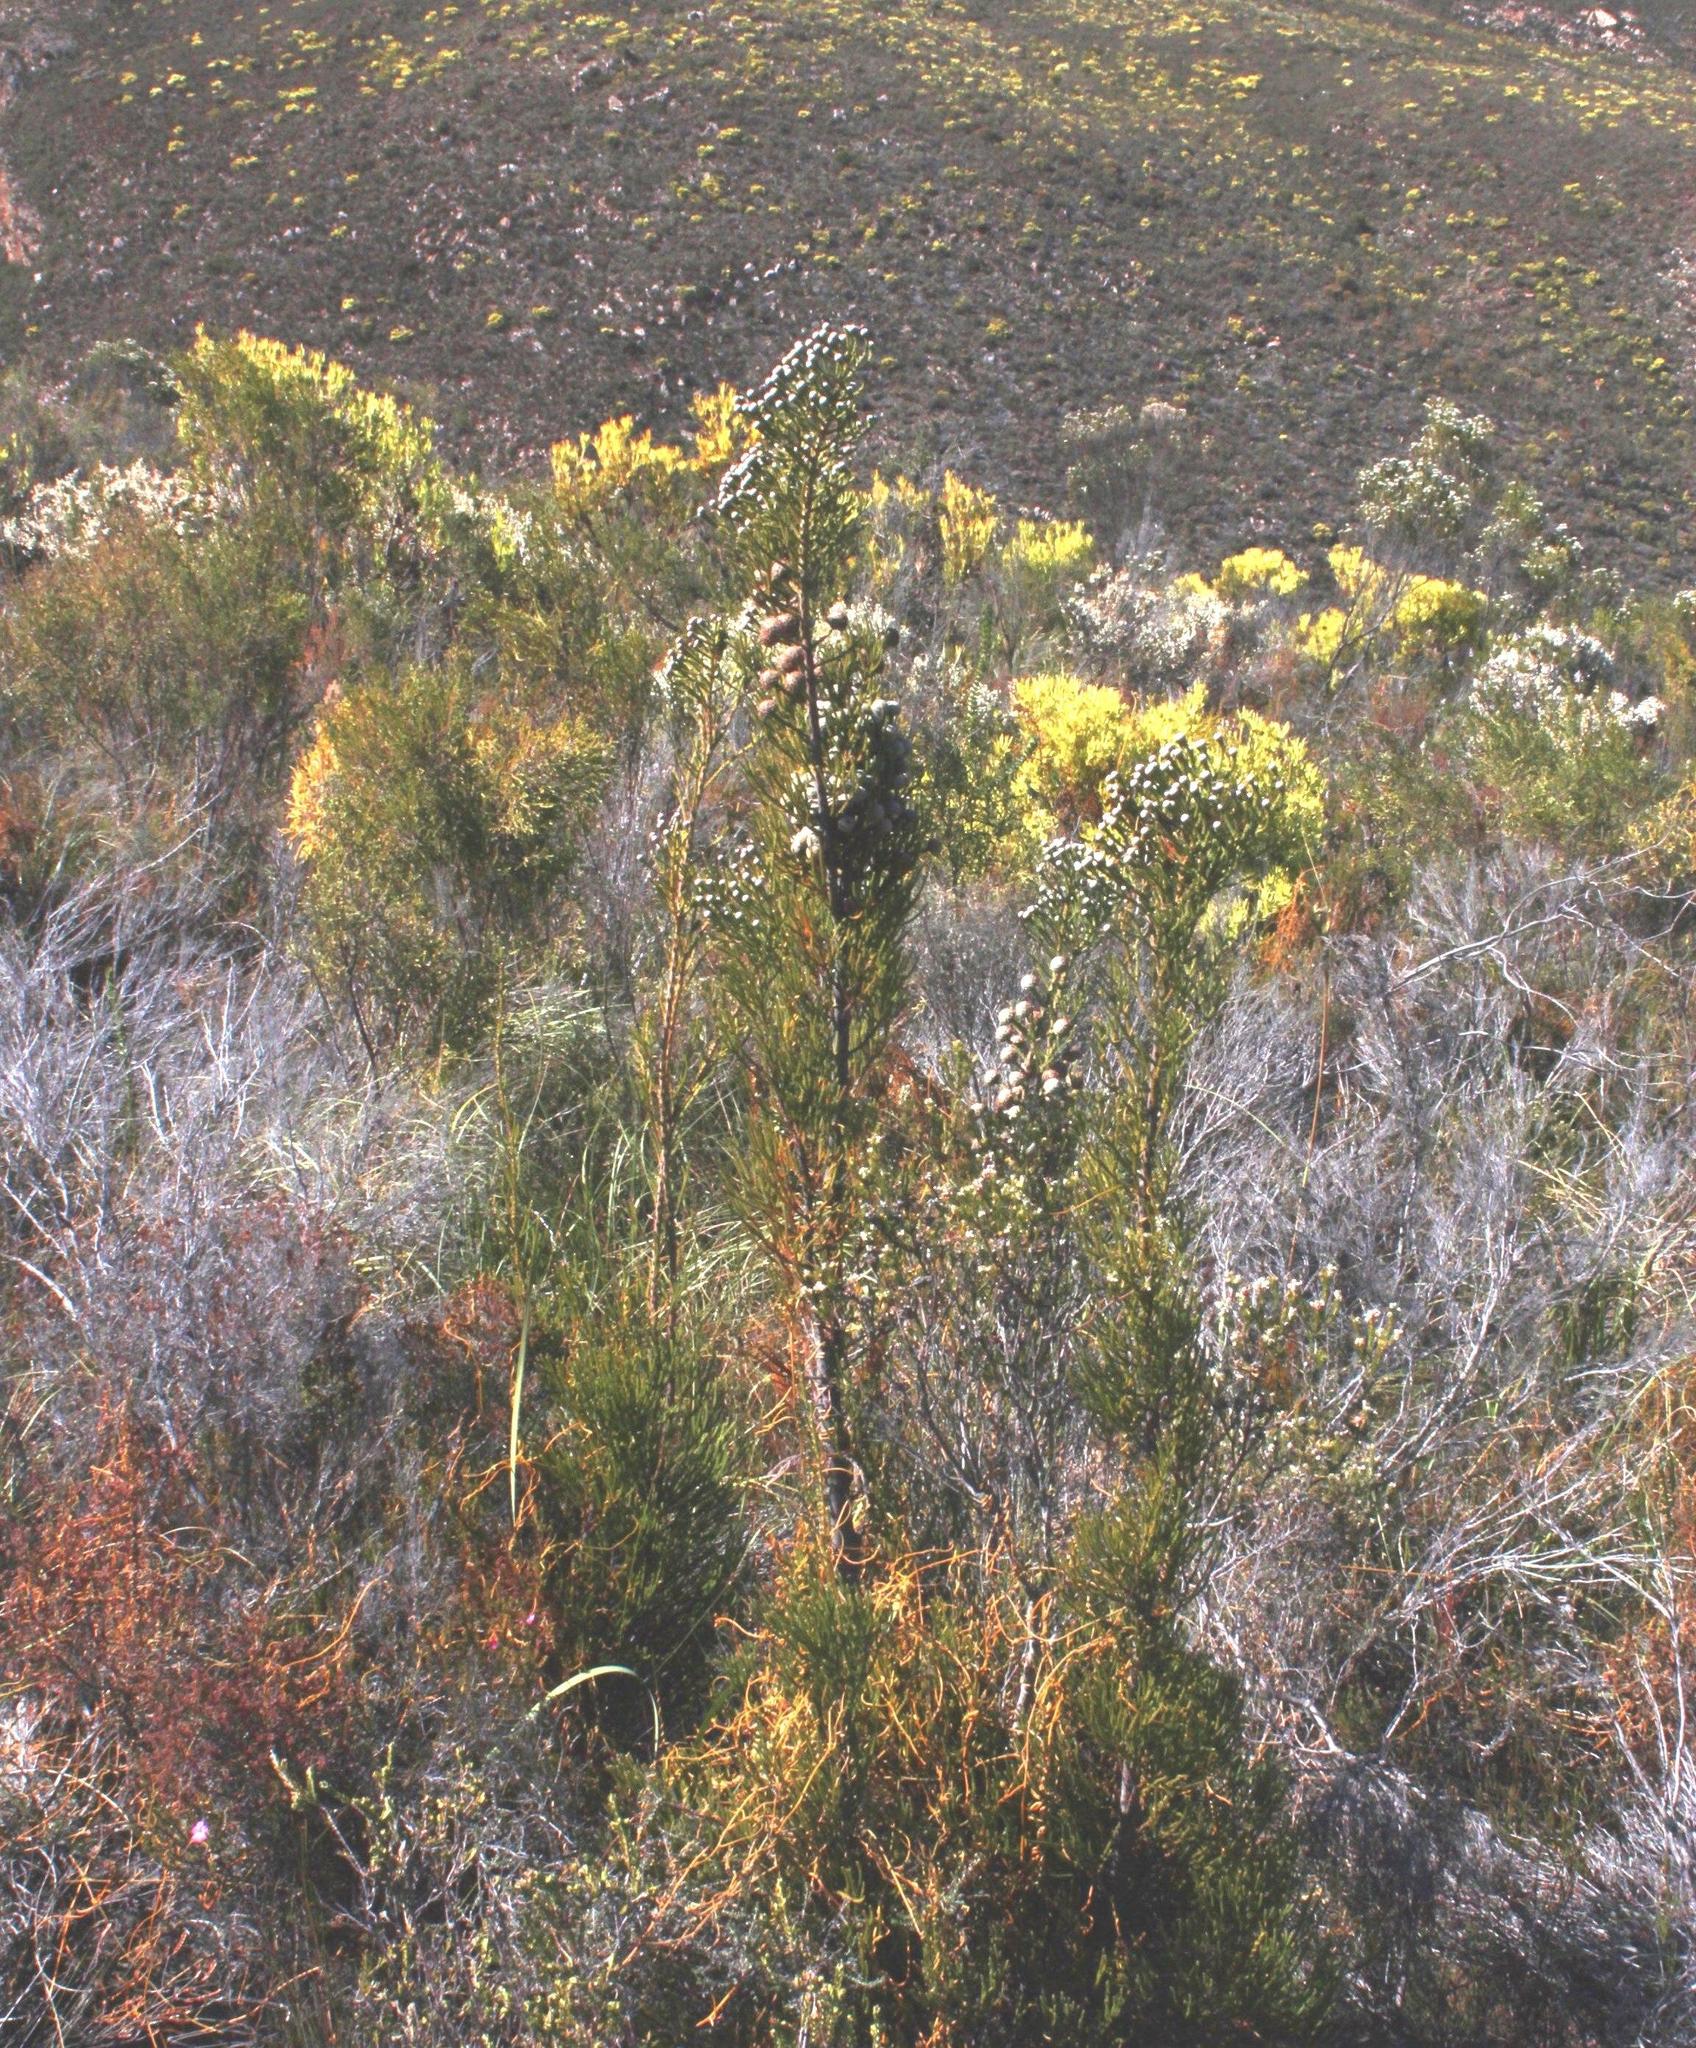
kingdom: Plantae
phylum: Tracheophyta
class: Magnoliopsida
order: Bruniales
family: Bruniaceae
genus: Brunia
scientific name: Brunia noduliflora
